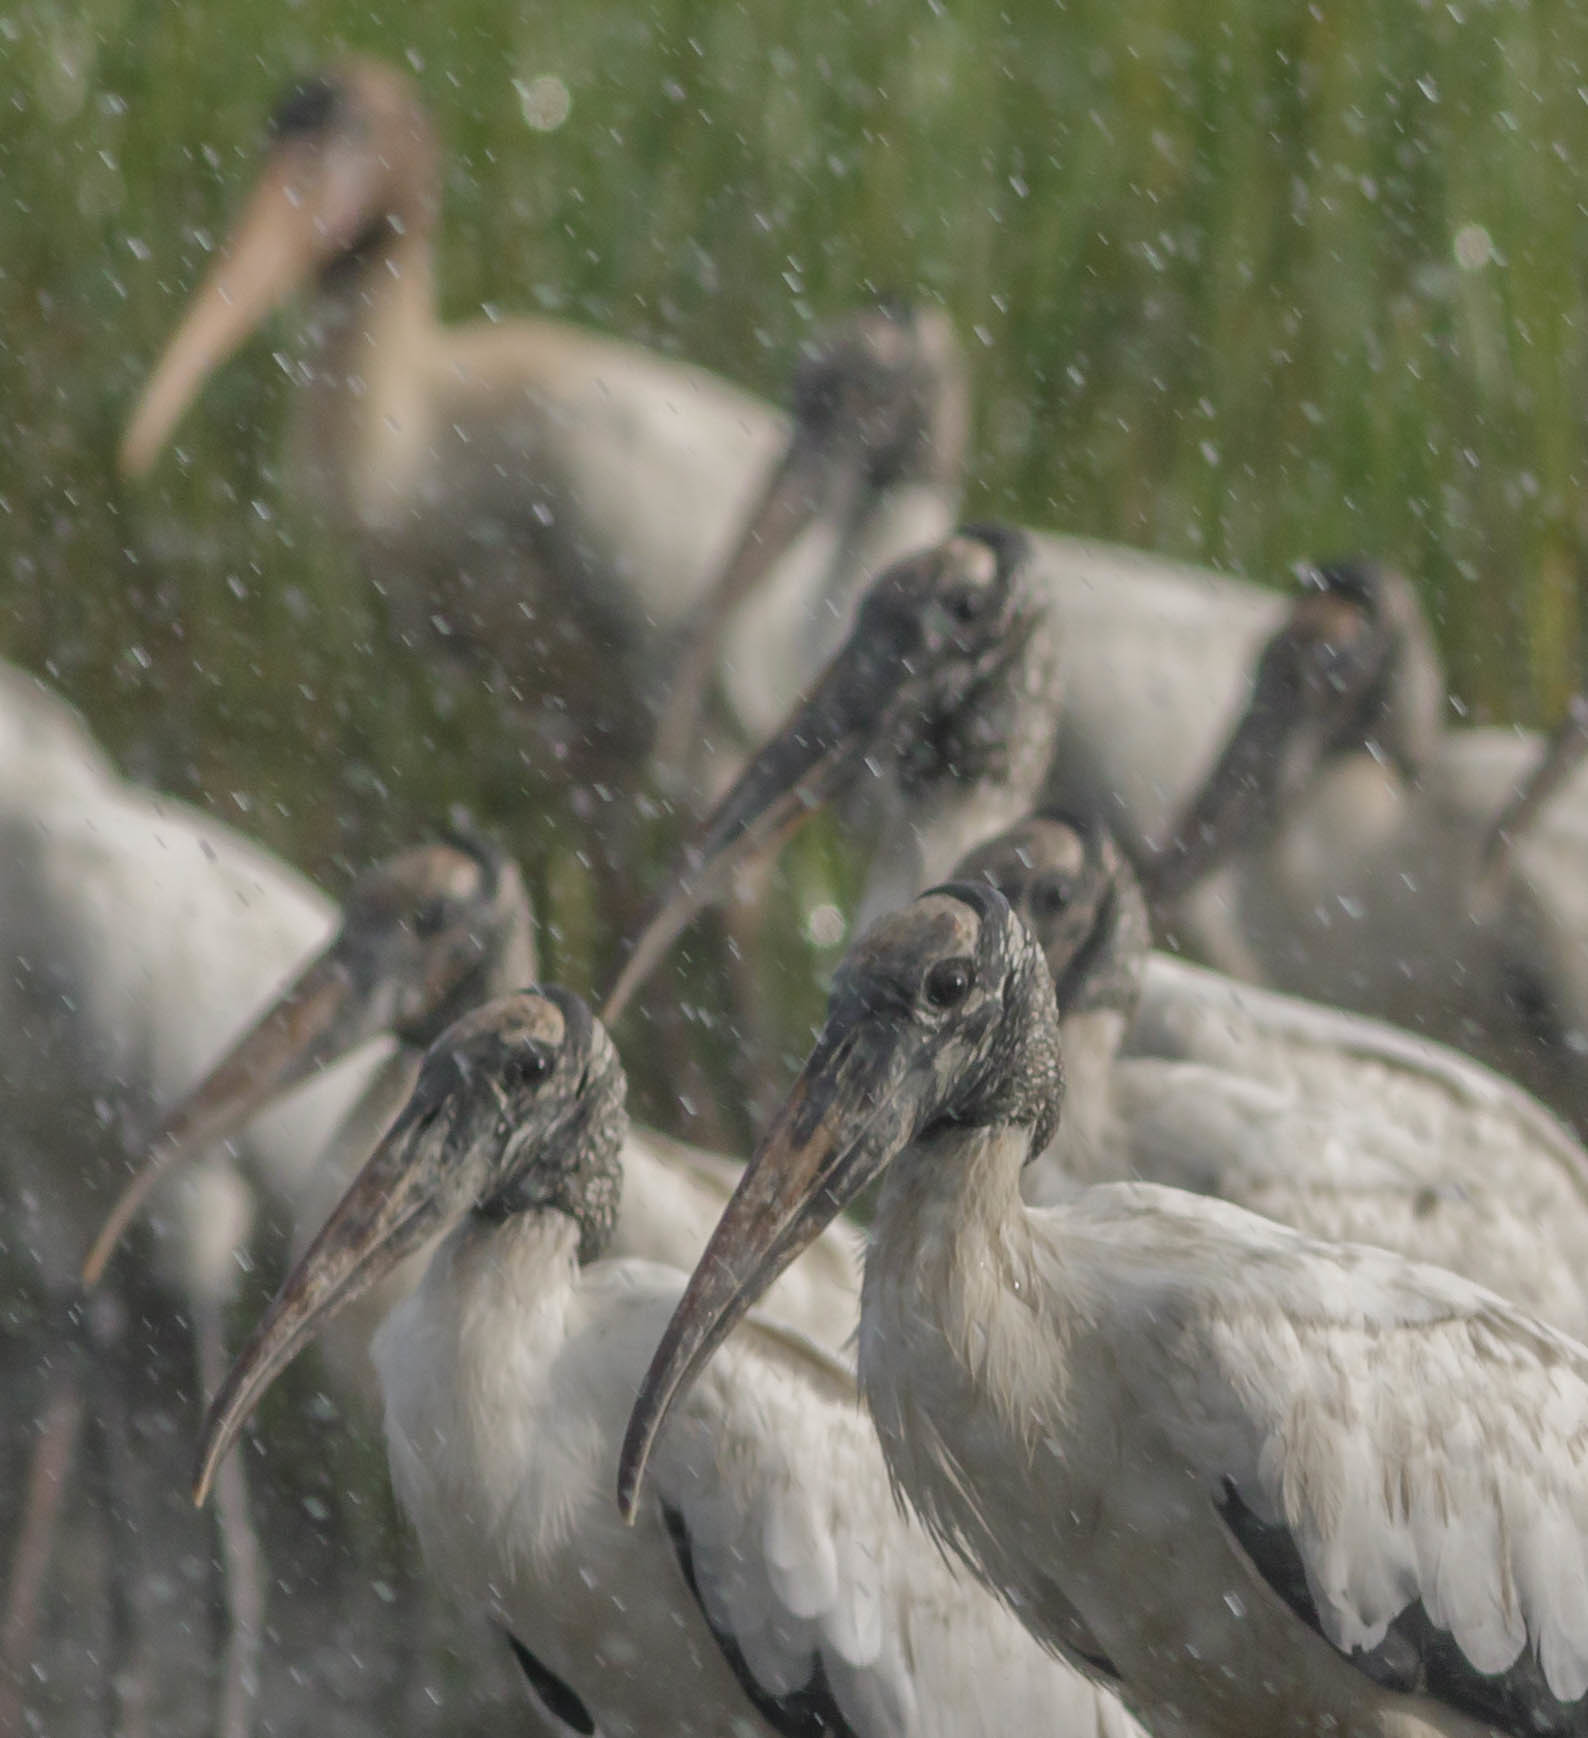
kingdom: Animalia
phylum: Chordata
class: Aves
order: Ciconiiformes
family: Ciconiidae
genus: Mycteria
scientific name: Mycteria americana
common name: Wood stork
